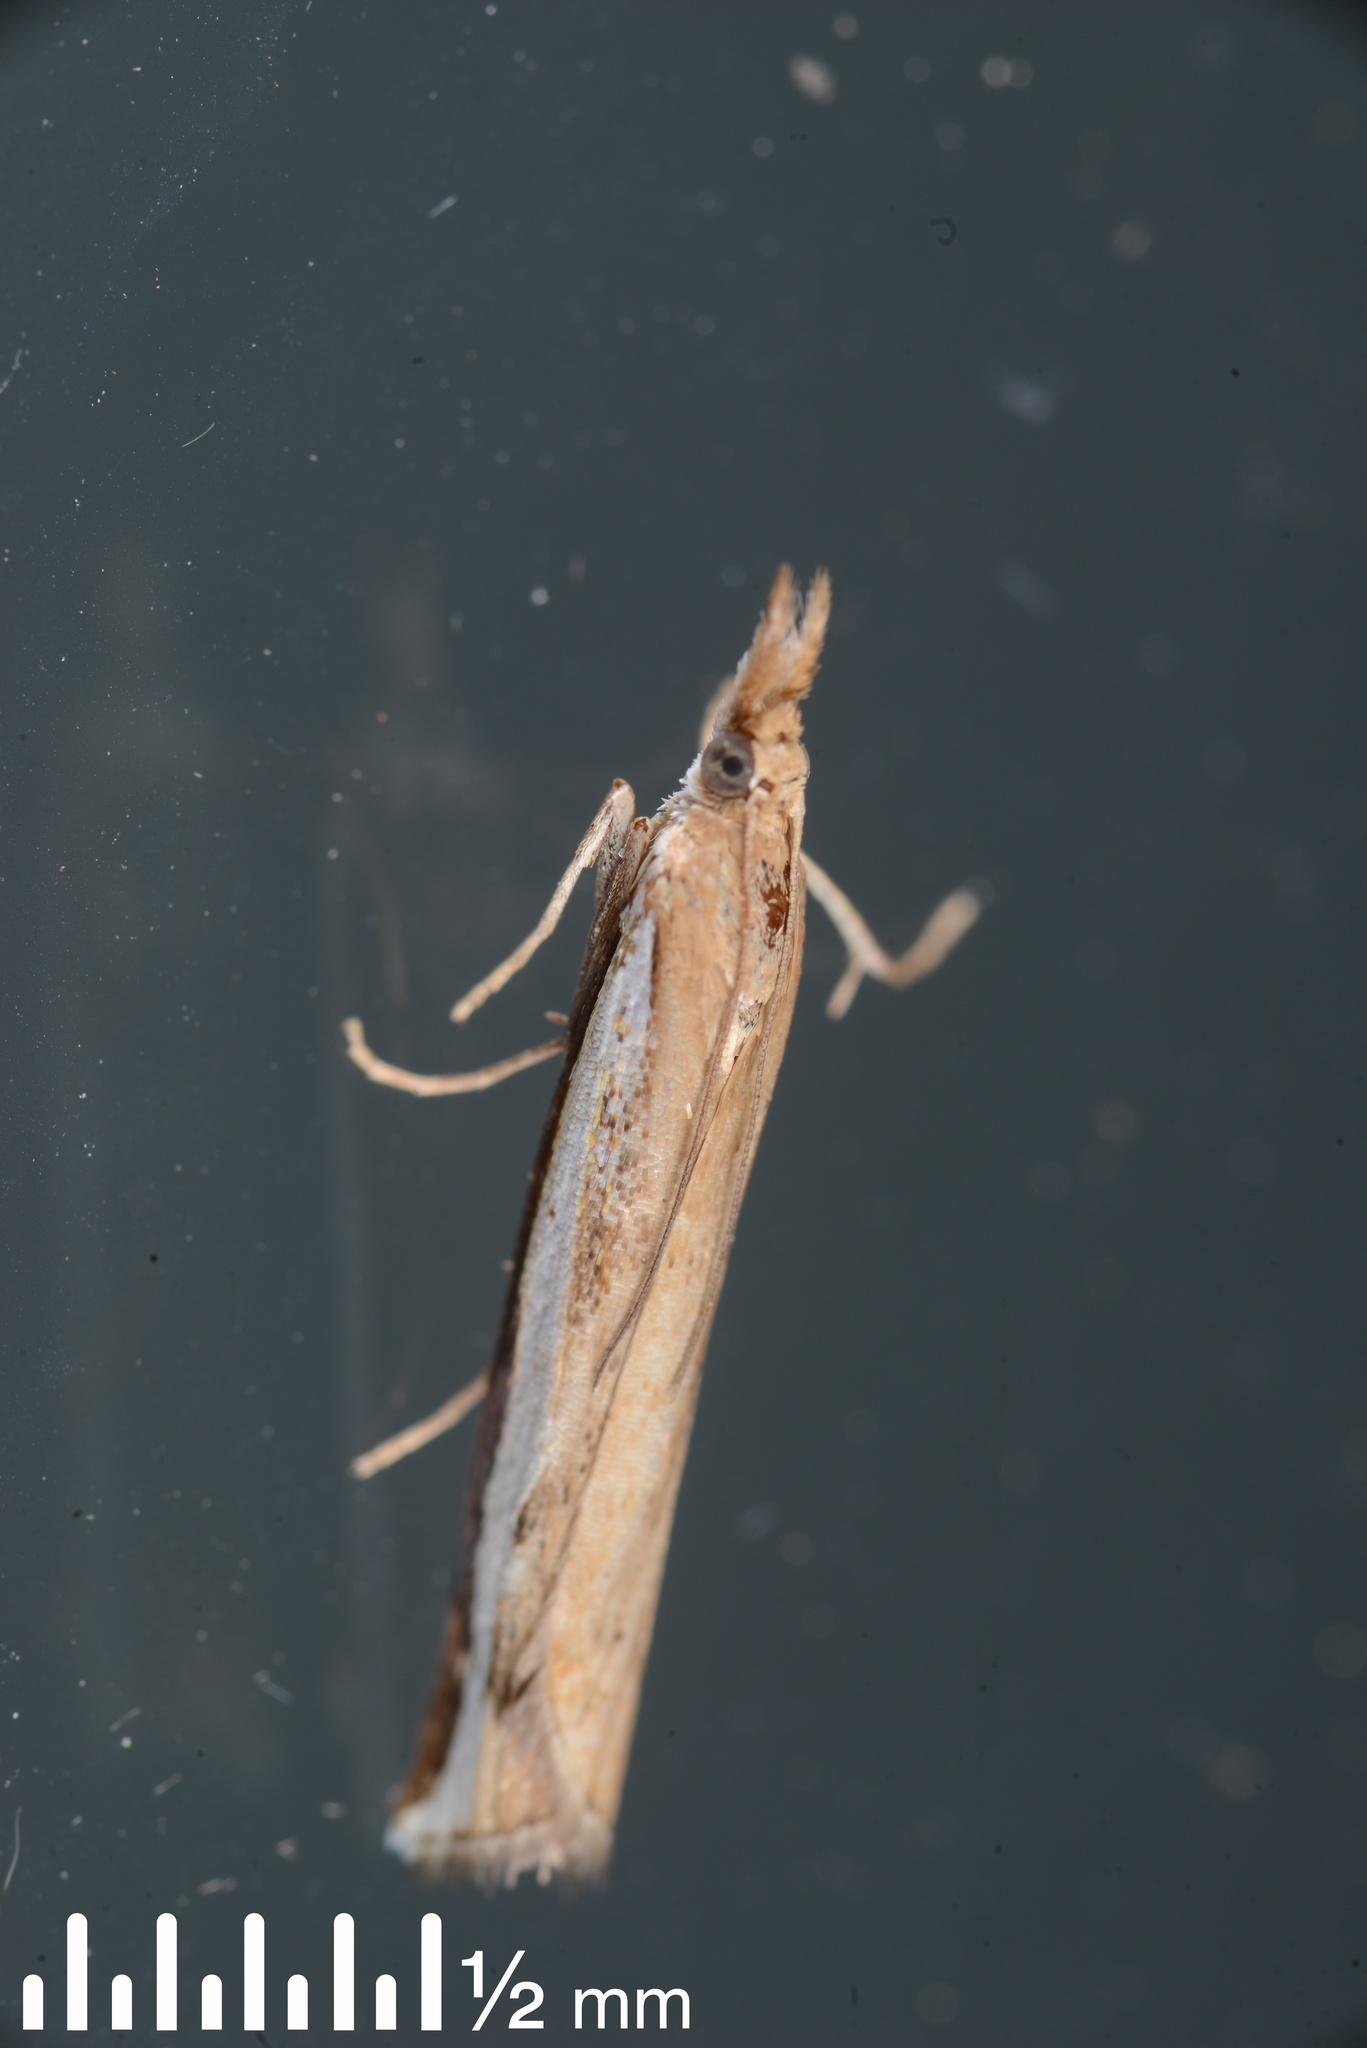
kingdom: Animalia
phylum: Arthropoda
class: Insecta
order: Lepidoptera
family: Crambidae
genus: Orocrambus
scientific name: Orocrambus flexuosellus
